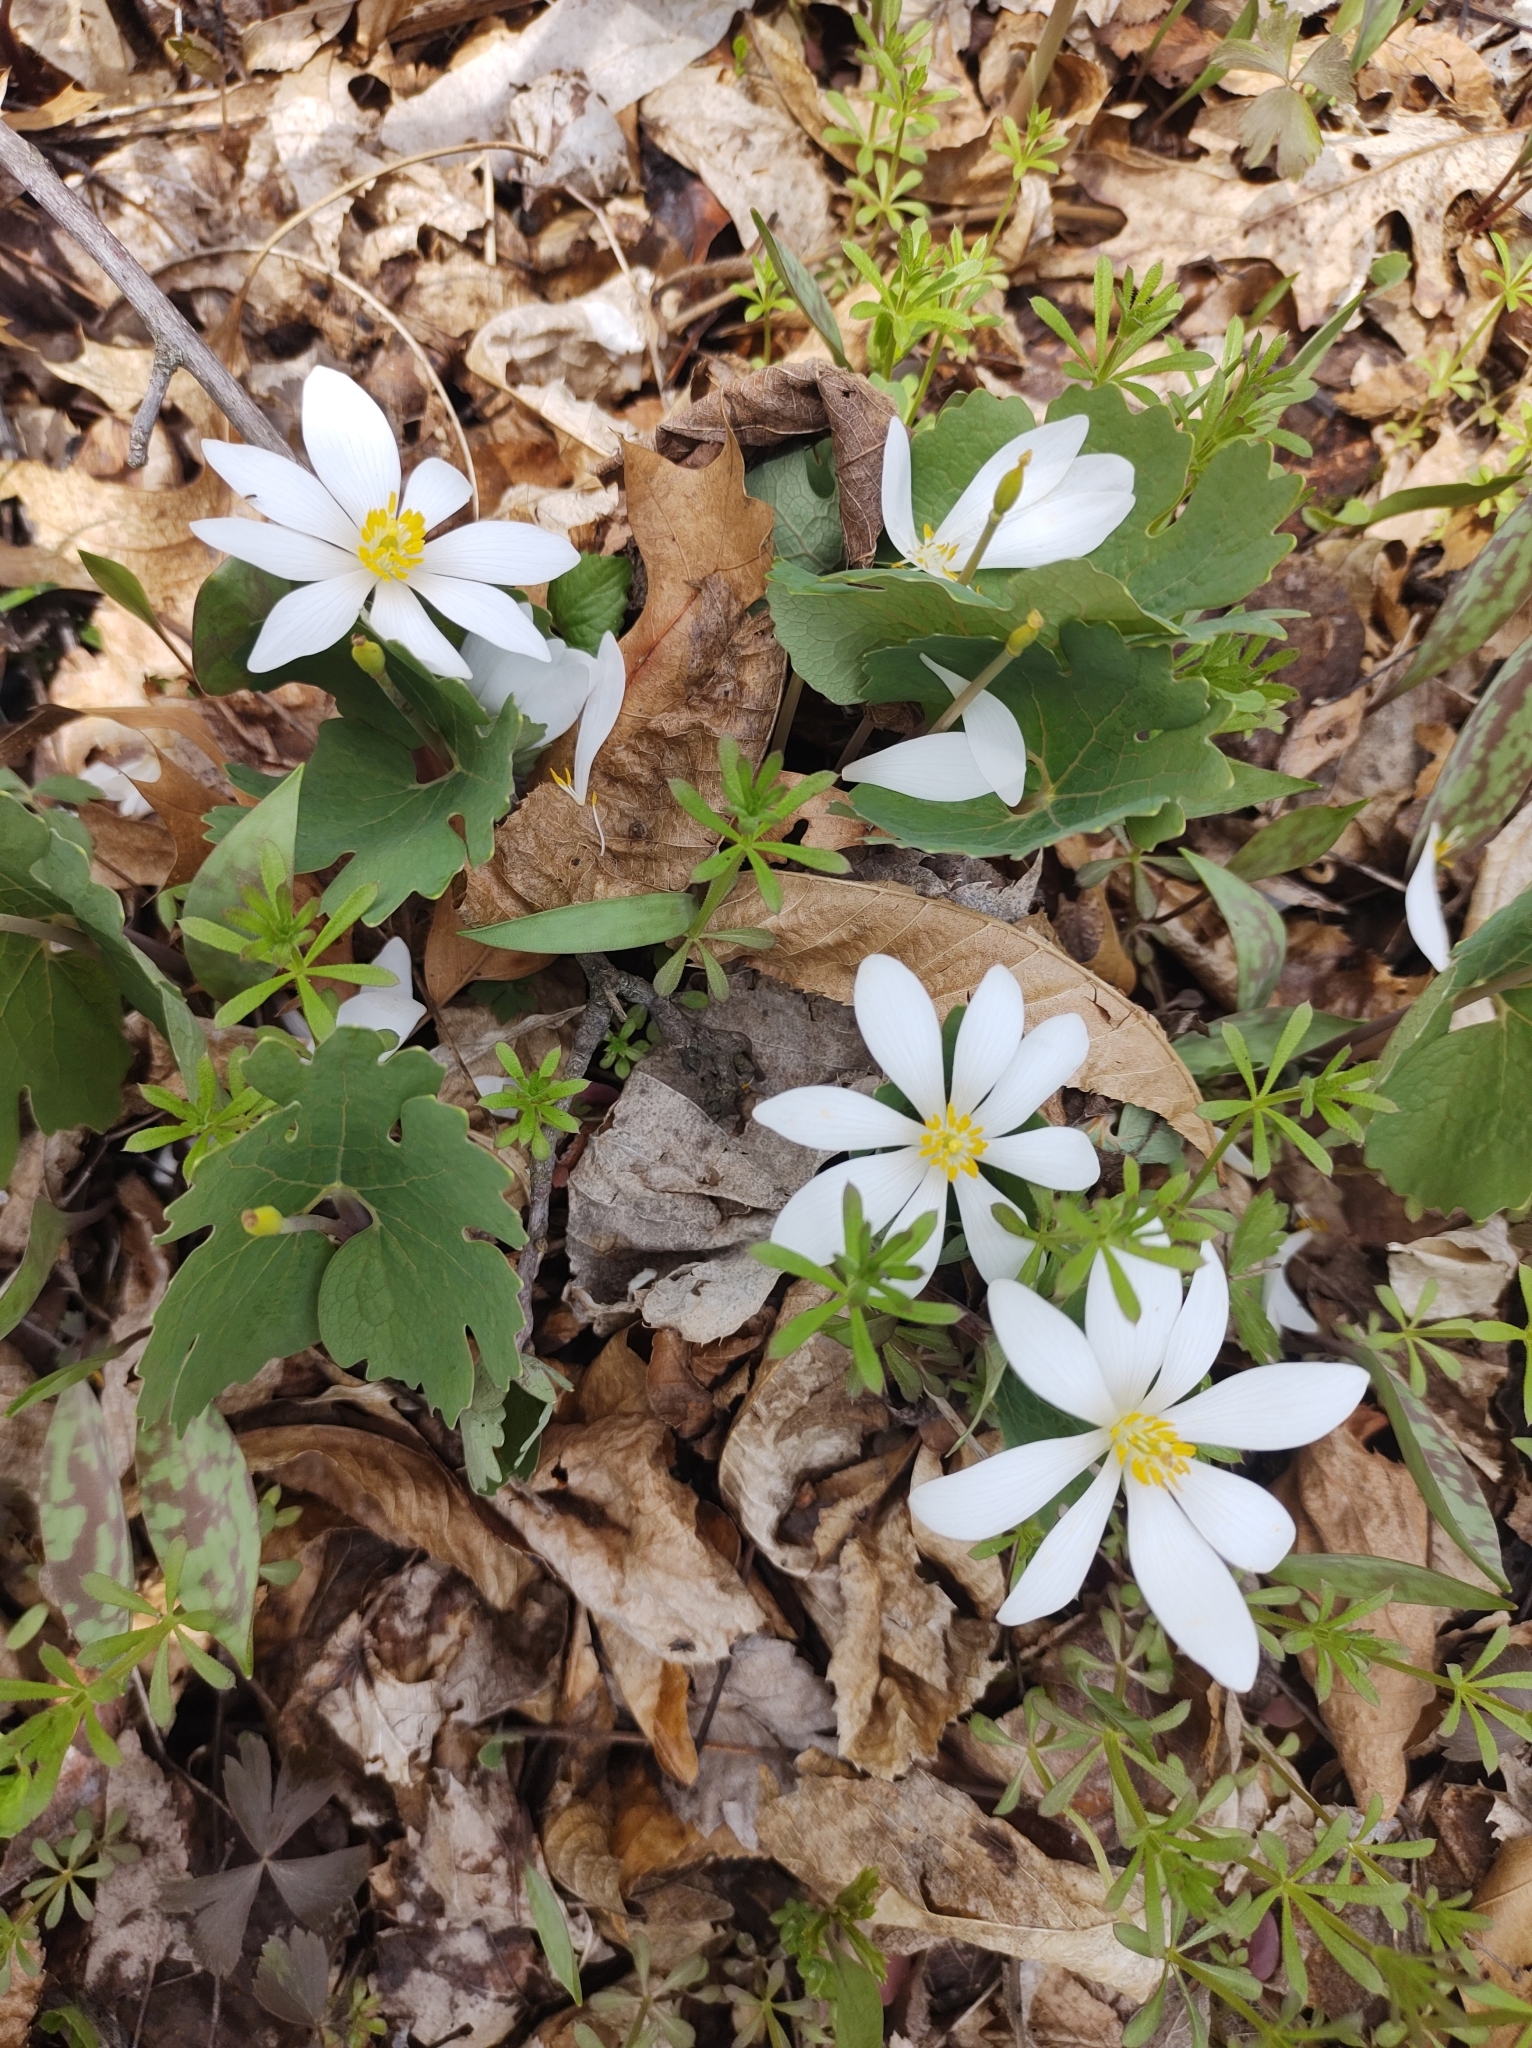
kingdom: Plantae
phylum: Tracheophyta
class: Magnoliopsida
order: Ranunculales
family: Papaveraceae
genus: Sanguinaria
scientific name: Sanguinaria canadensis
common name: Bloodroot
